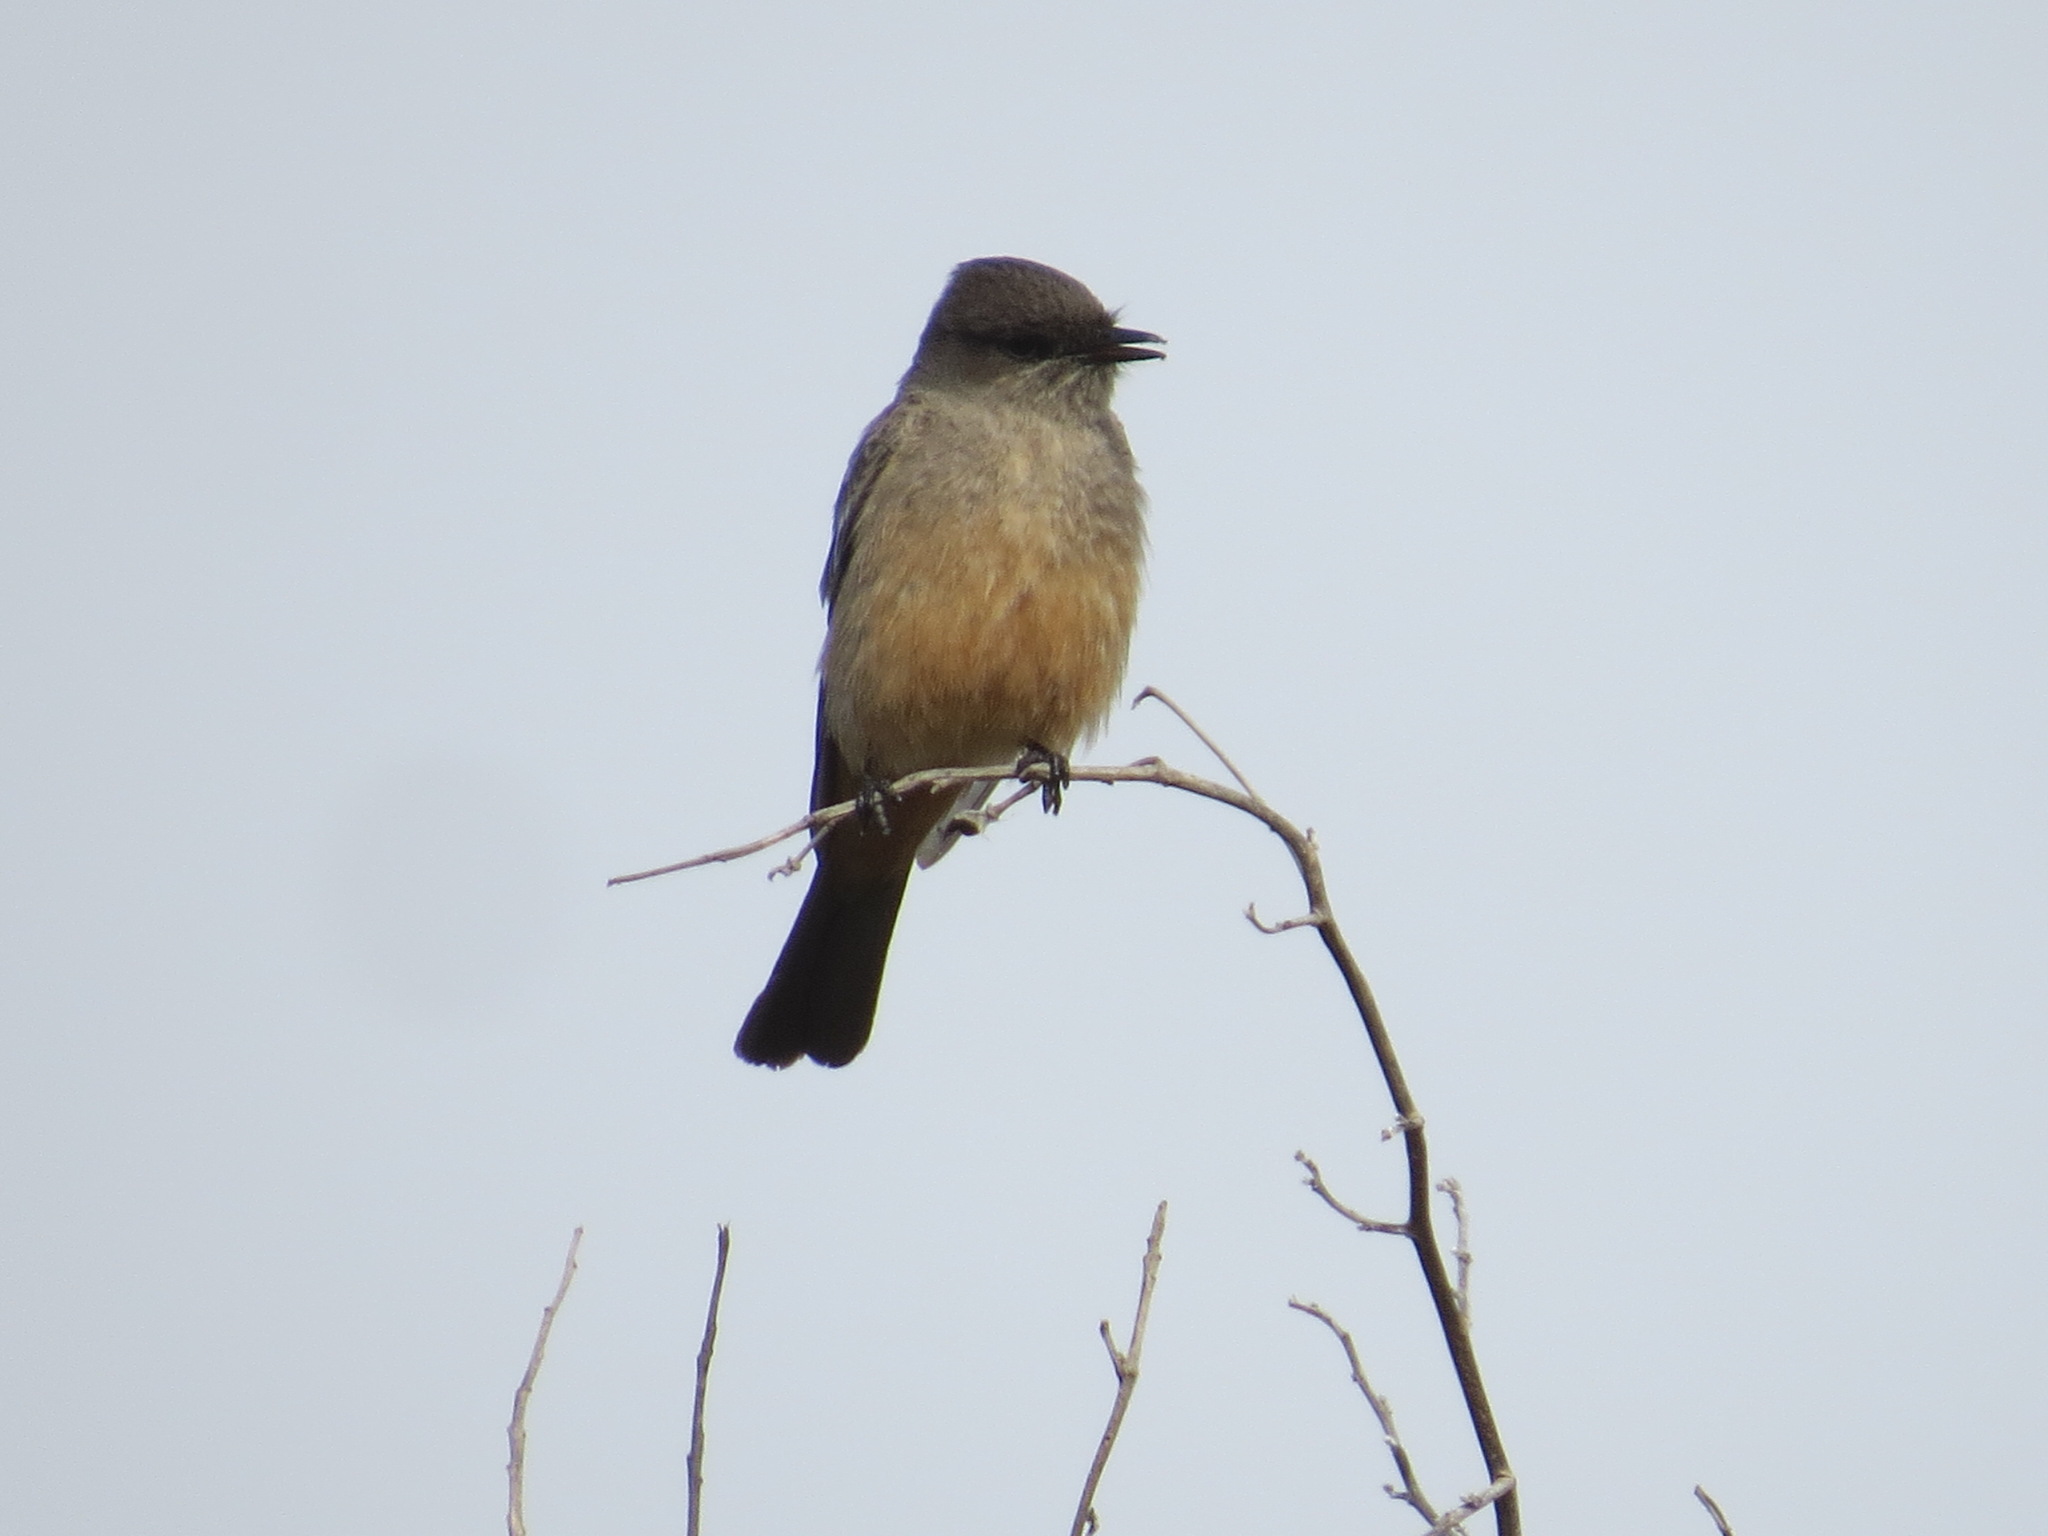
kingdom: Animalia
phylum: Chordata
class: Aves
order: Passeriformes
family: Tyrannidae
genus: Sayornis
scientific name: Sayornis saya
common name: Say's phoebe
